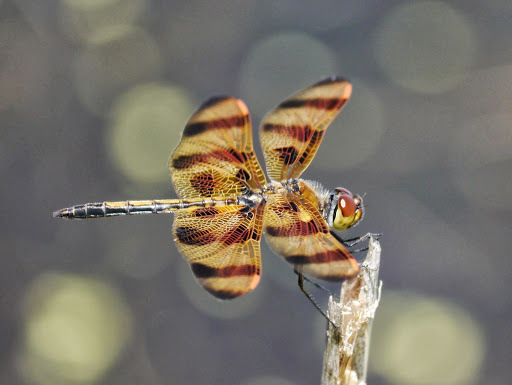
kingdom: Animalia
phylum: Arthropoda
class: Insecta
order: Odonata
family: Libellulidae
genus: Celithemis
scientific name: Celithemis eponina
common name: Halloween pennant
